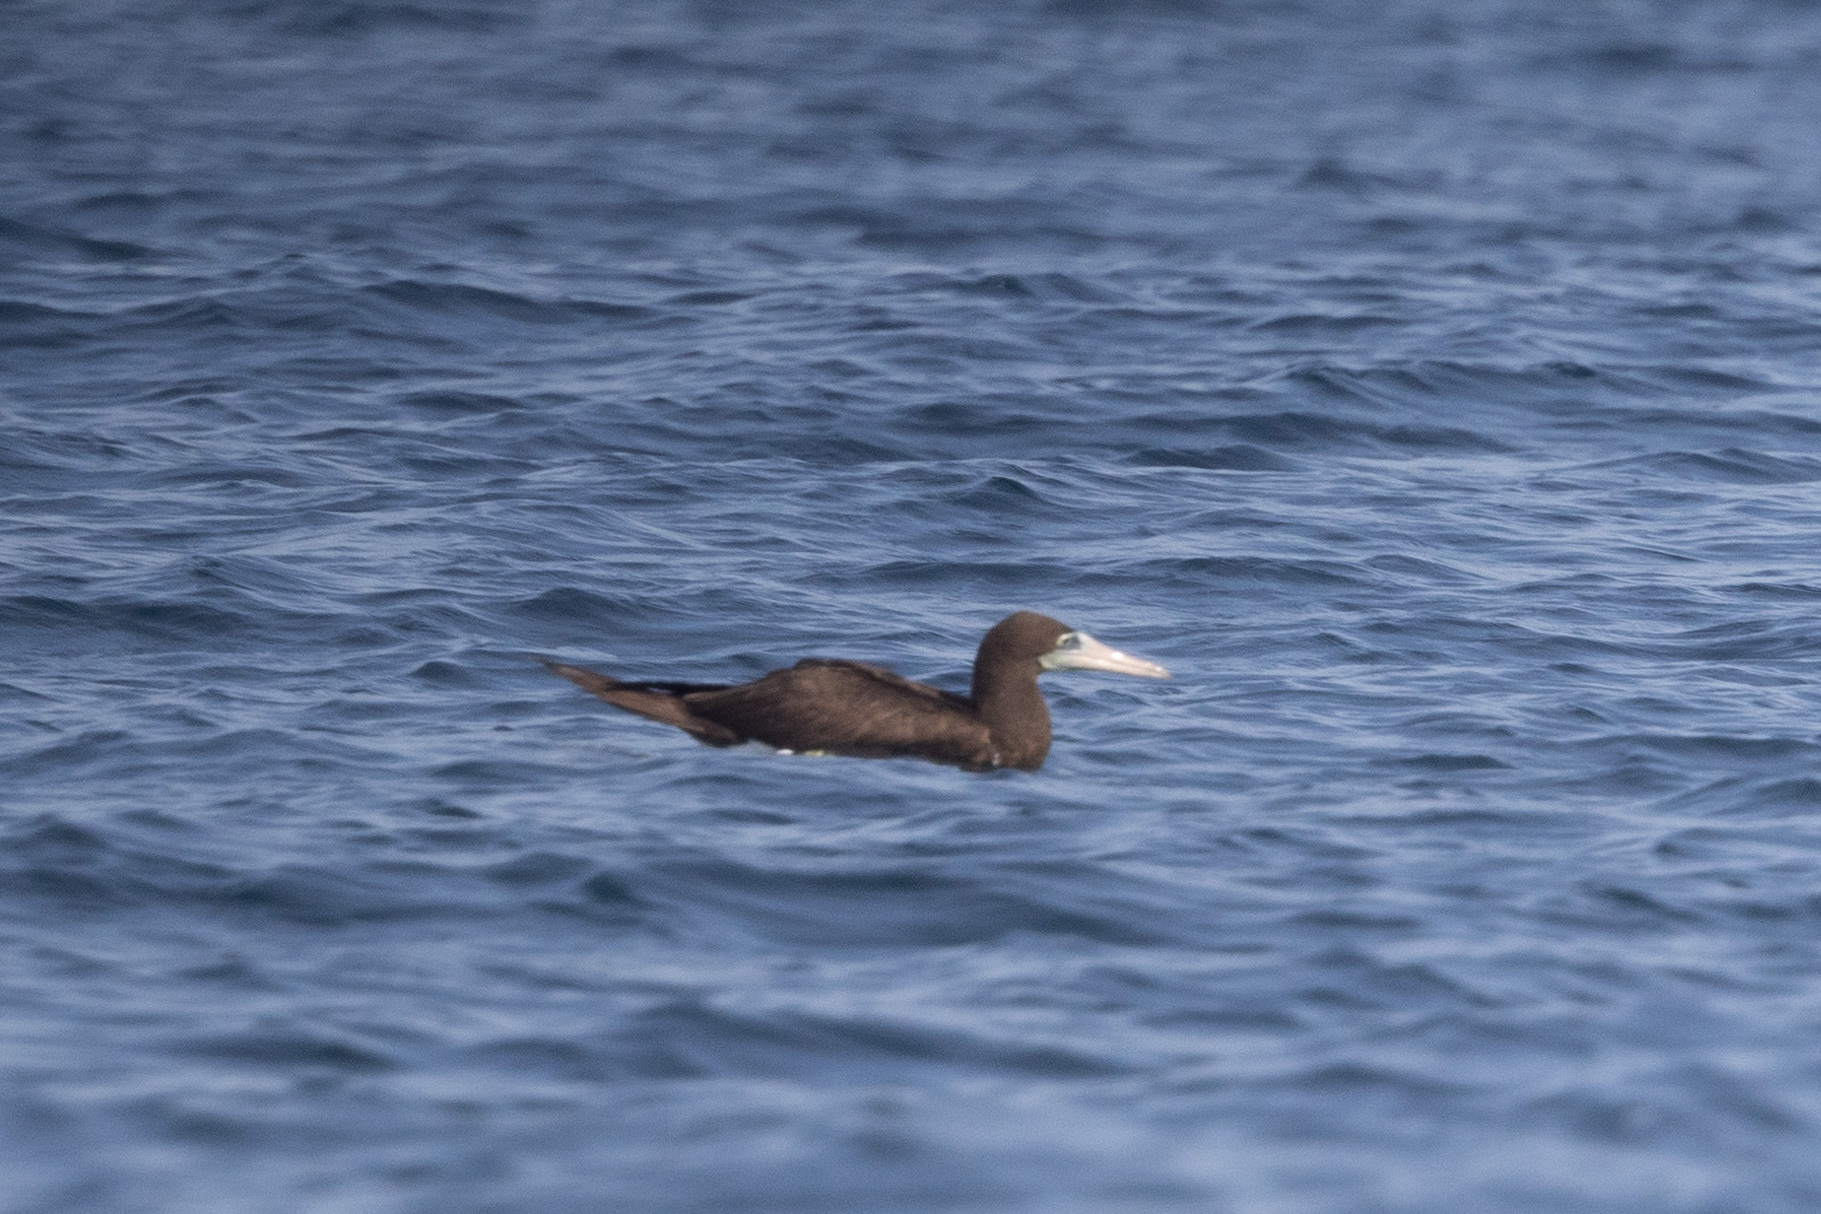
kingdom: Animalia
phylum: Chordata
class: Aves
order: Suliformes
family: Sulidae
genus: Sula
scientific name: Sula leucogaster
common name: Brown booby
